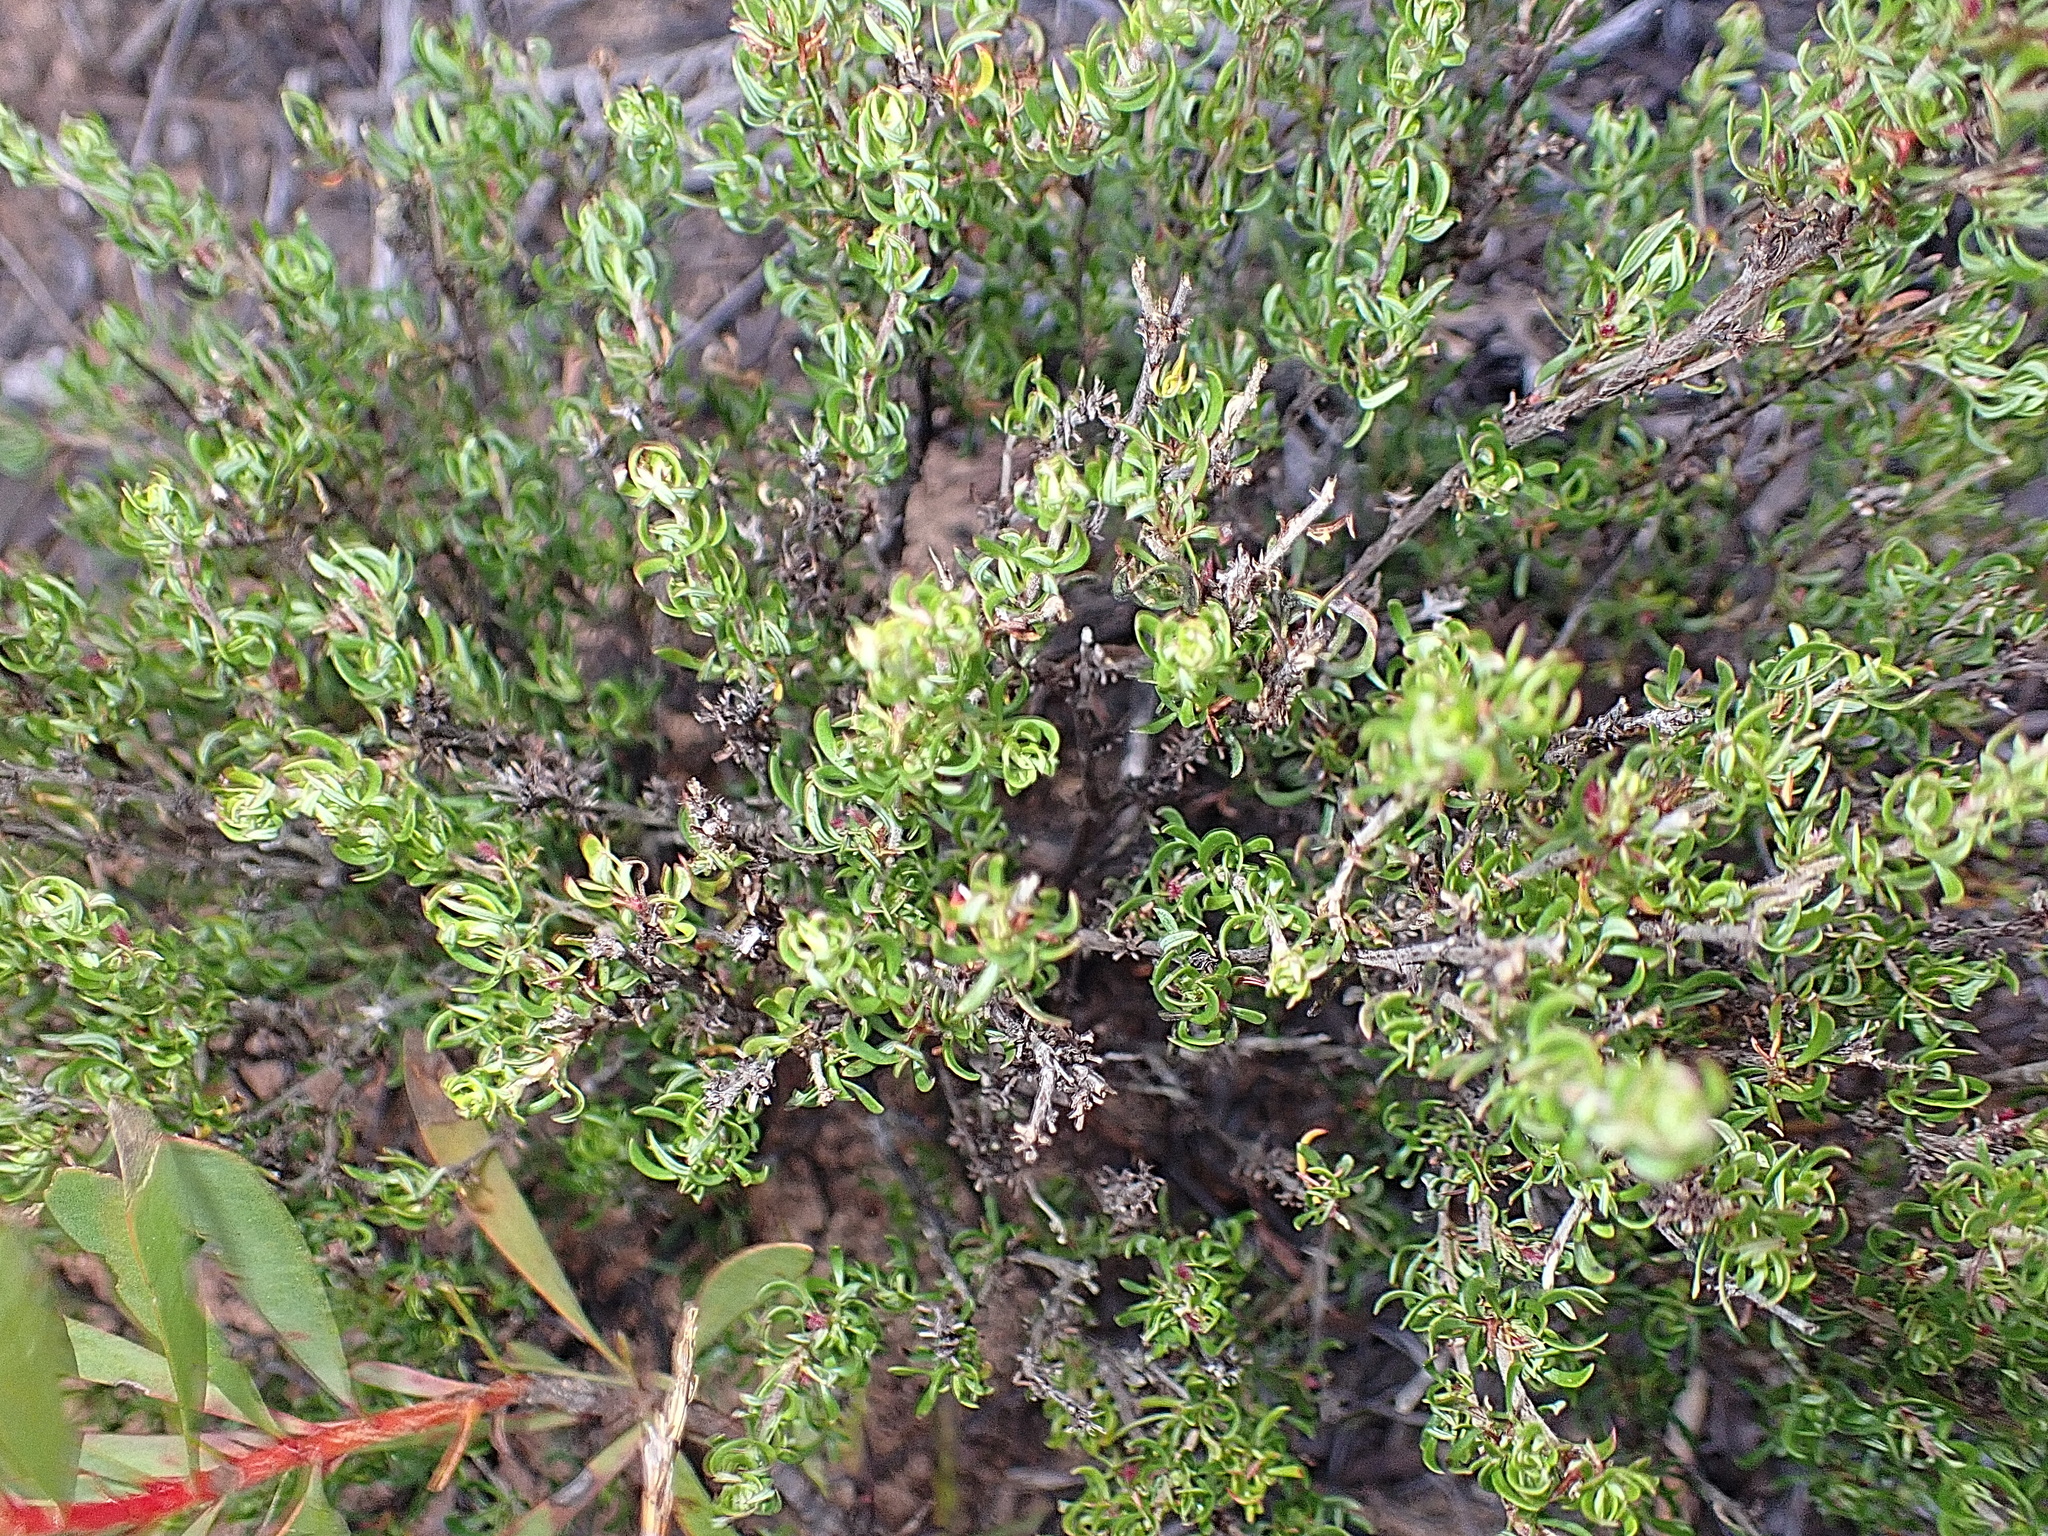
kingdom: Plantae
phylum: Tracheophyta
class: Magnoliopsida
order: Rosales
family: Rosaceae
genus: Cliffortia
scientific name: Cliffortia falcata
